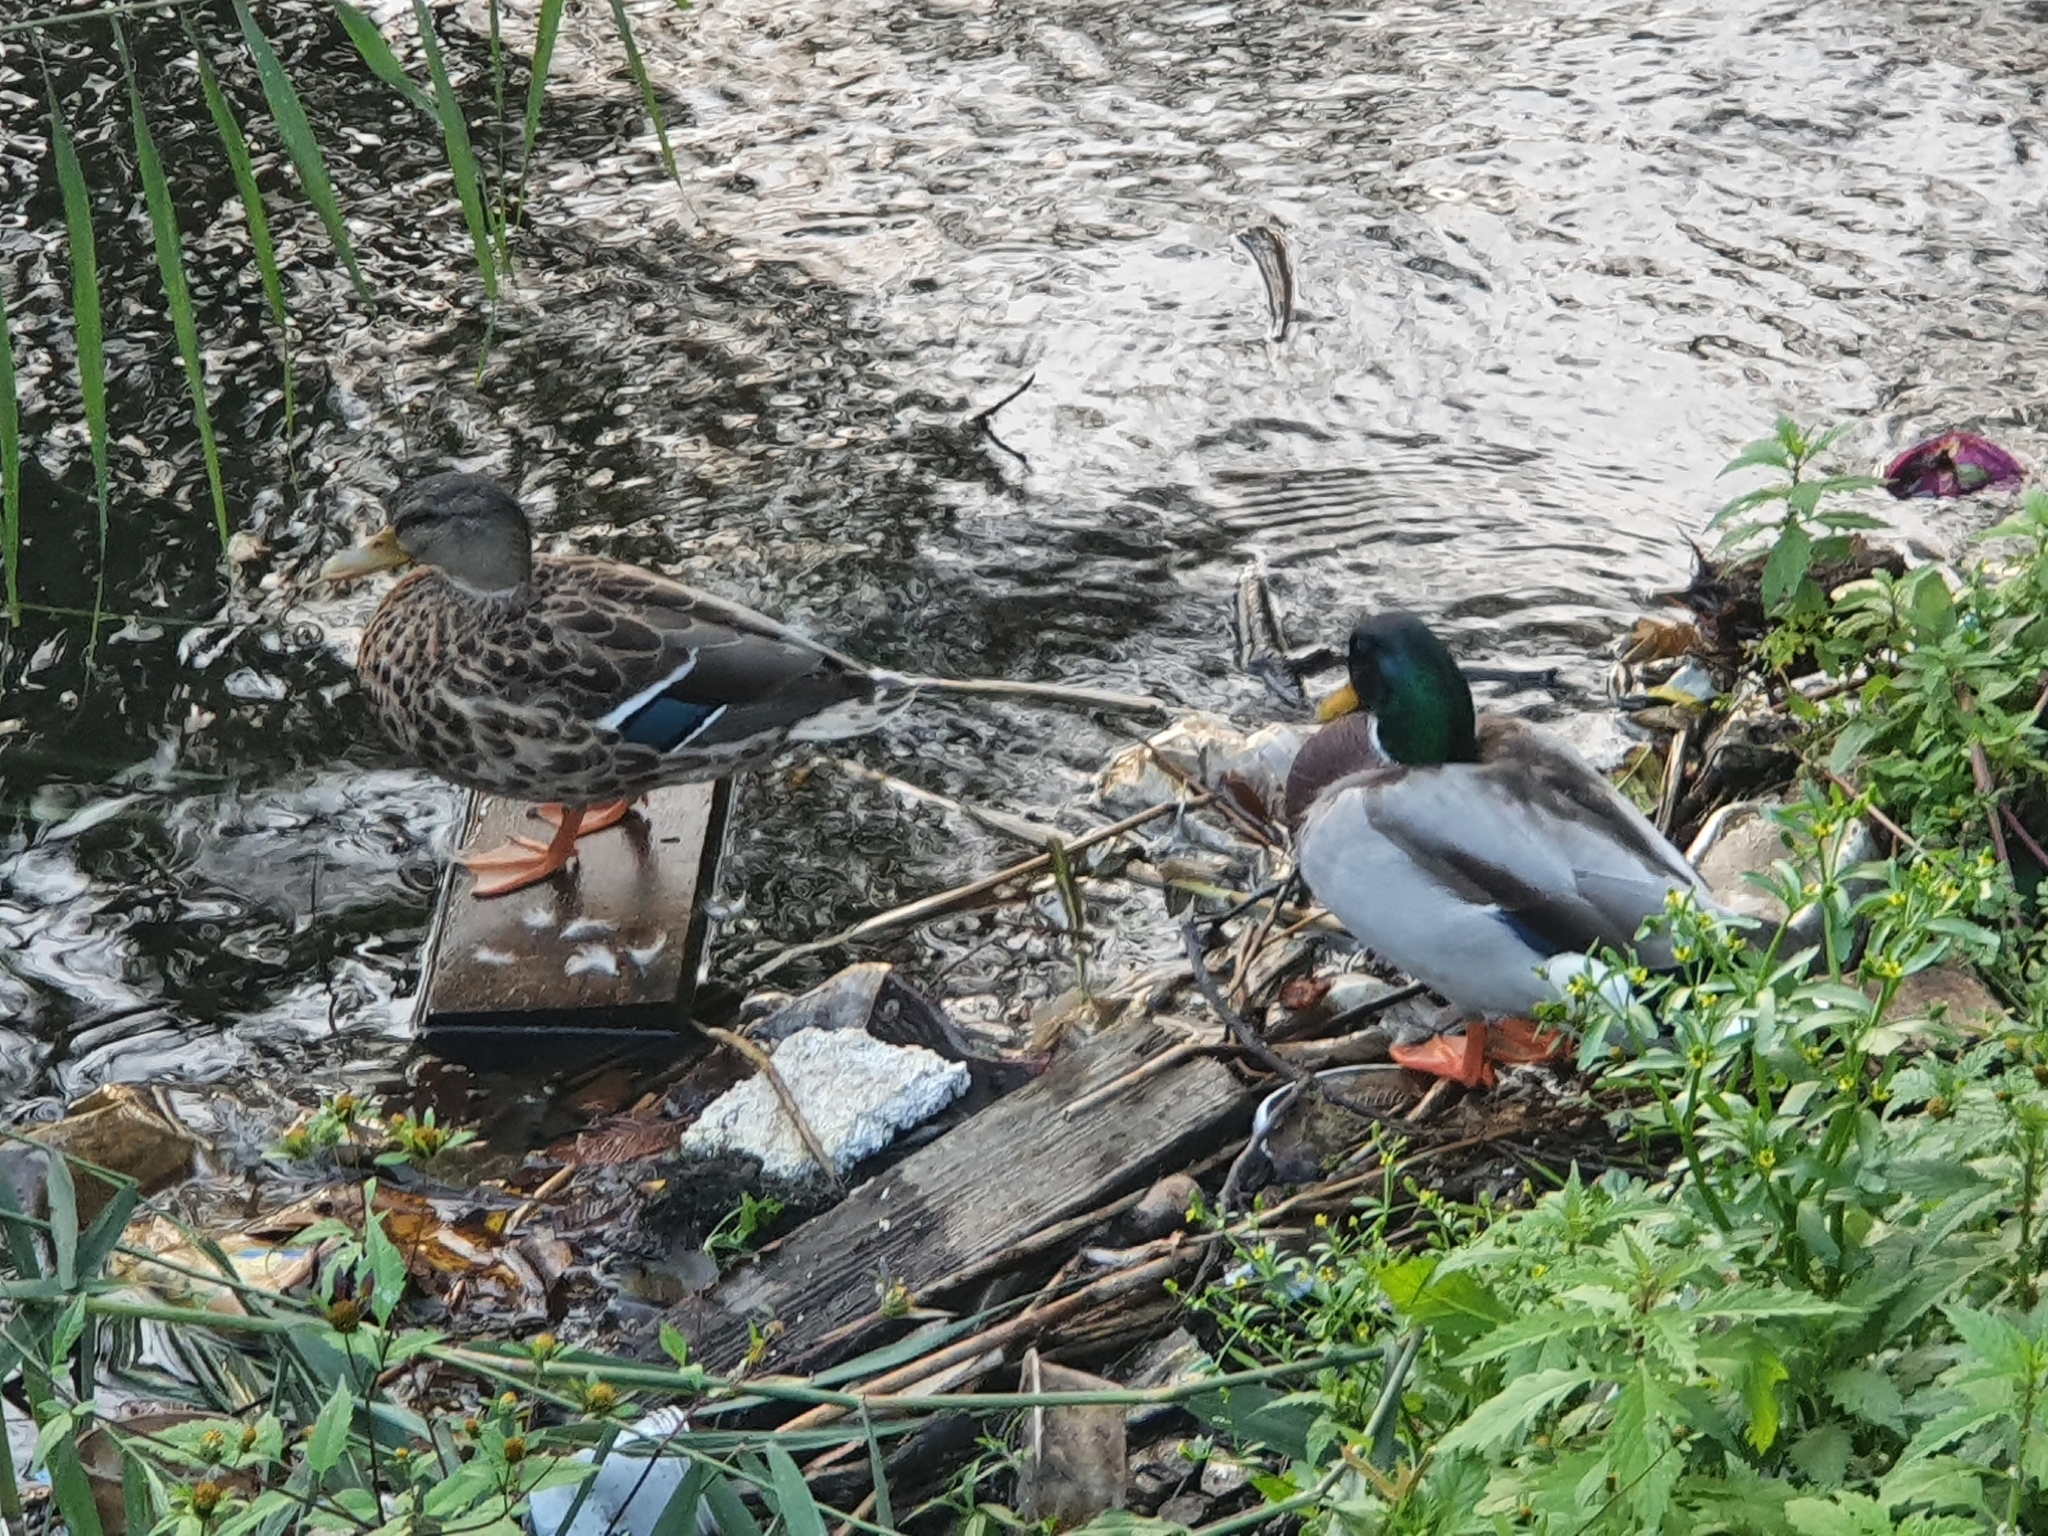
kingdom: Animalia
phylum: Chordata
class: Aves
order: Anseriformes
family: Anatidae
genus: Anas
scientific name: Anas platyrhynchos
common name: Mallard
